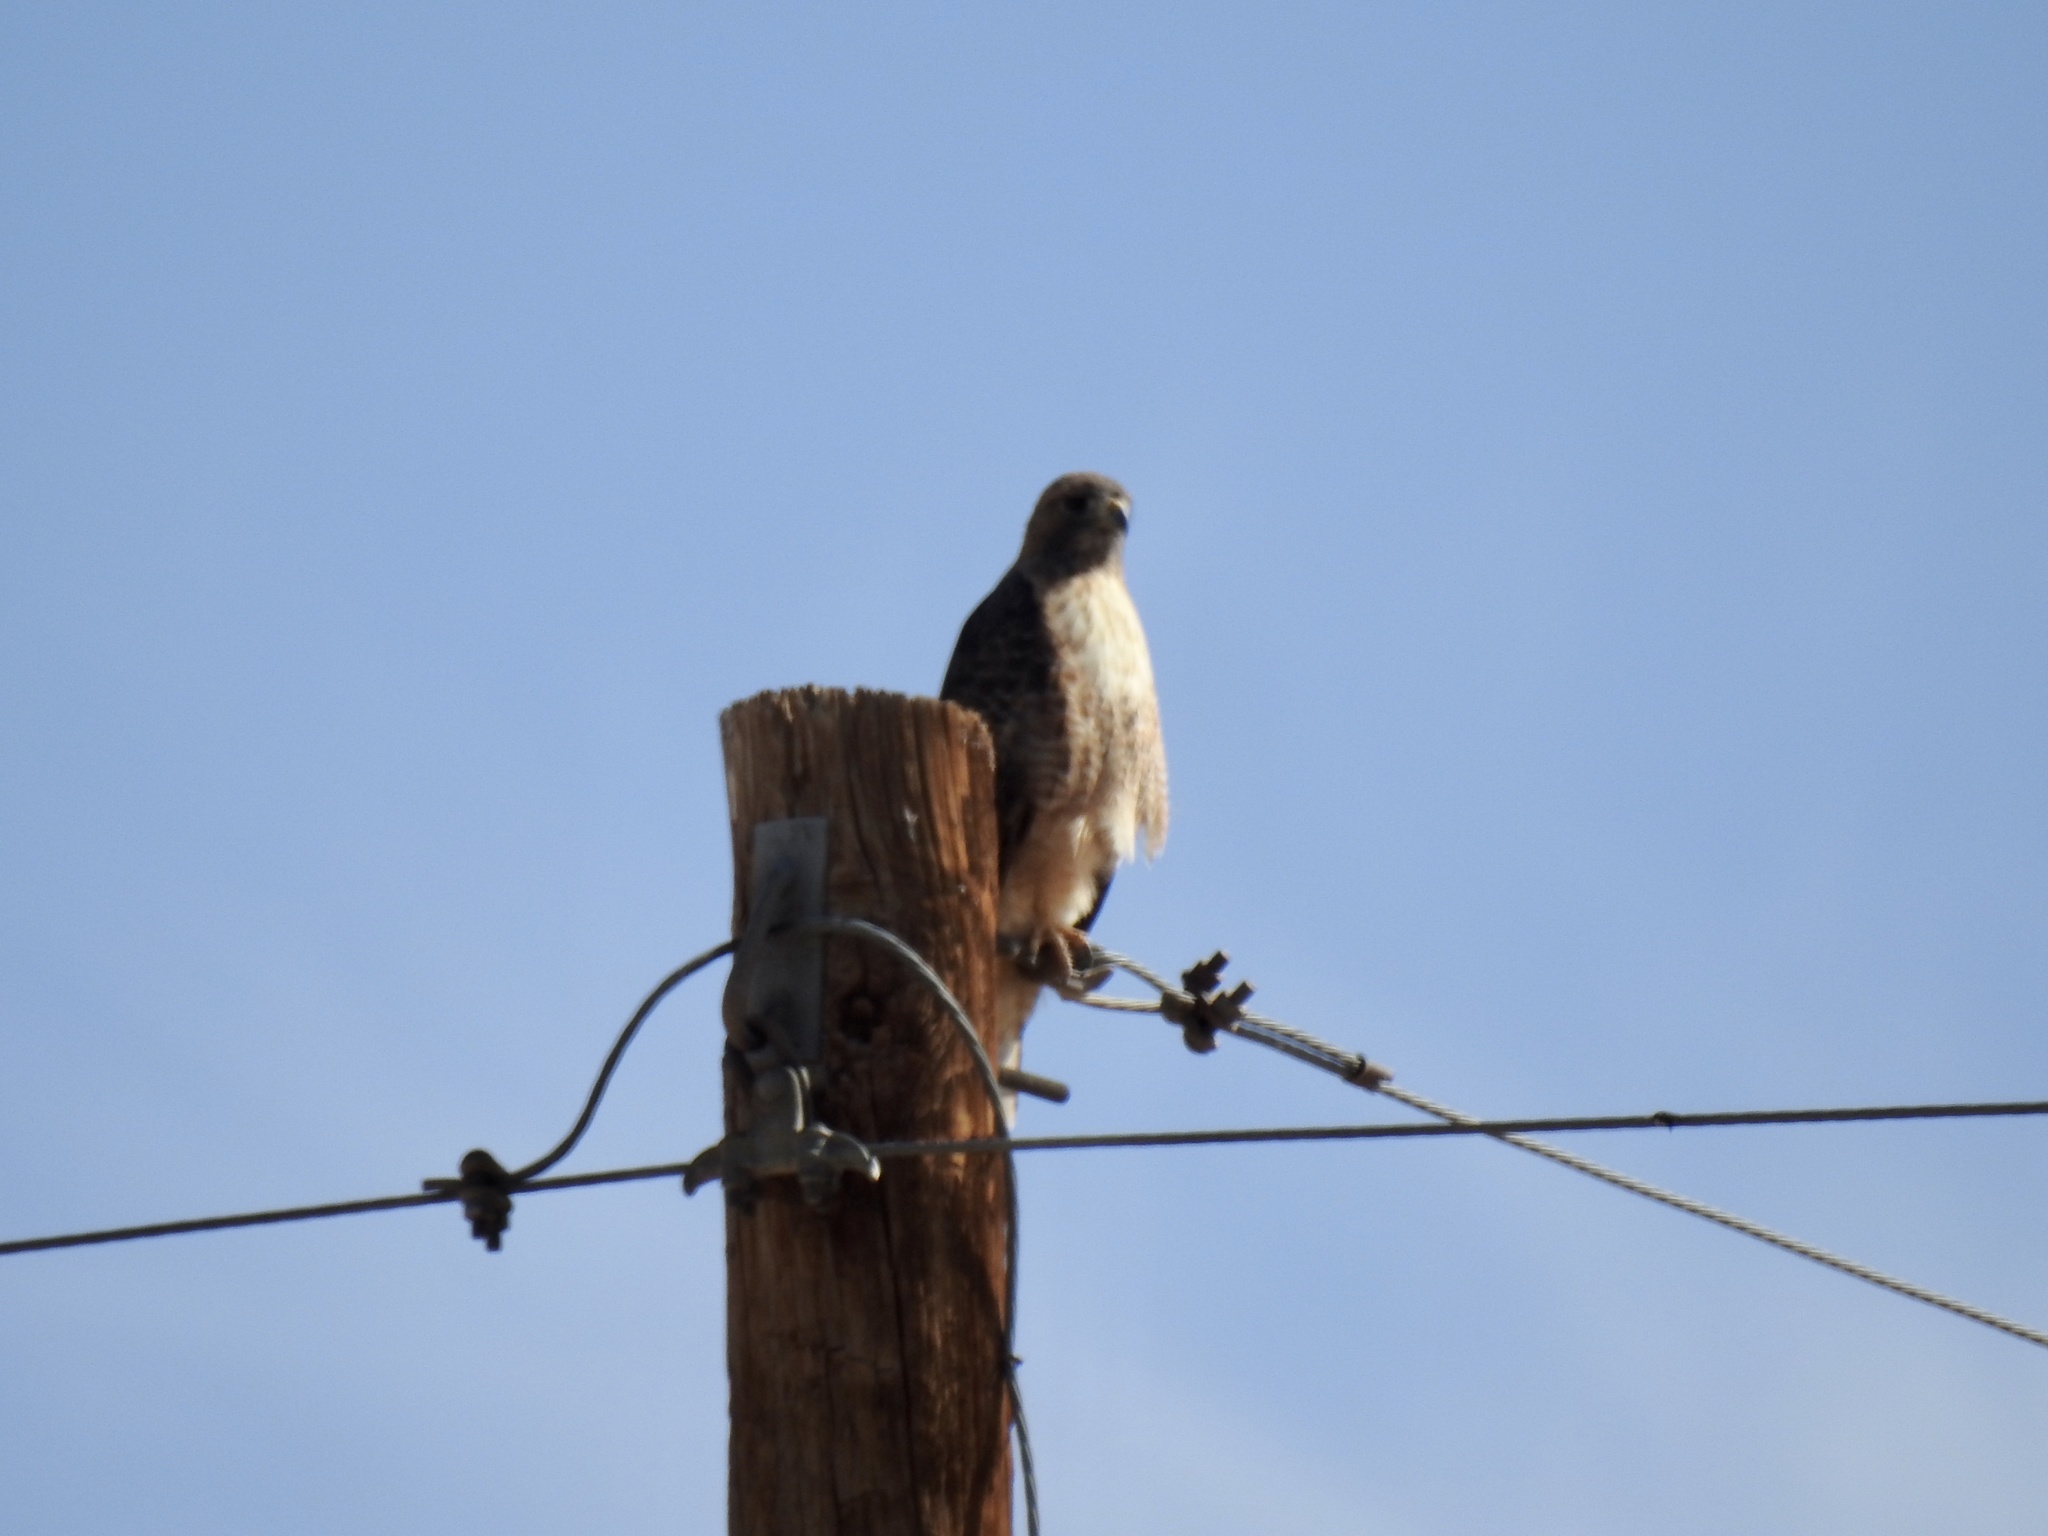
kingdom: Animalia
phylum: Chordata
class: Aves
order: Accipitriformes
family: Accipitridae
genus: Buteo
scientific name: Buteo jamaicensis
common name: Red-tailed hawk
